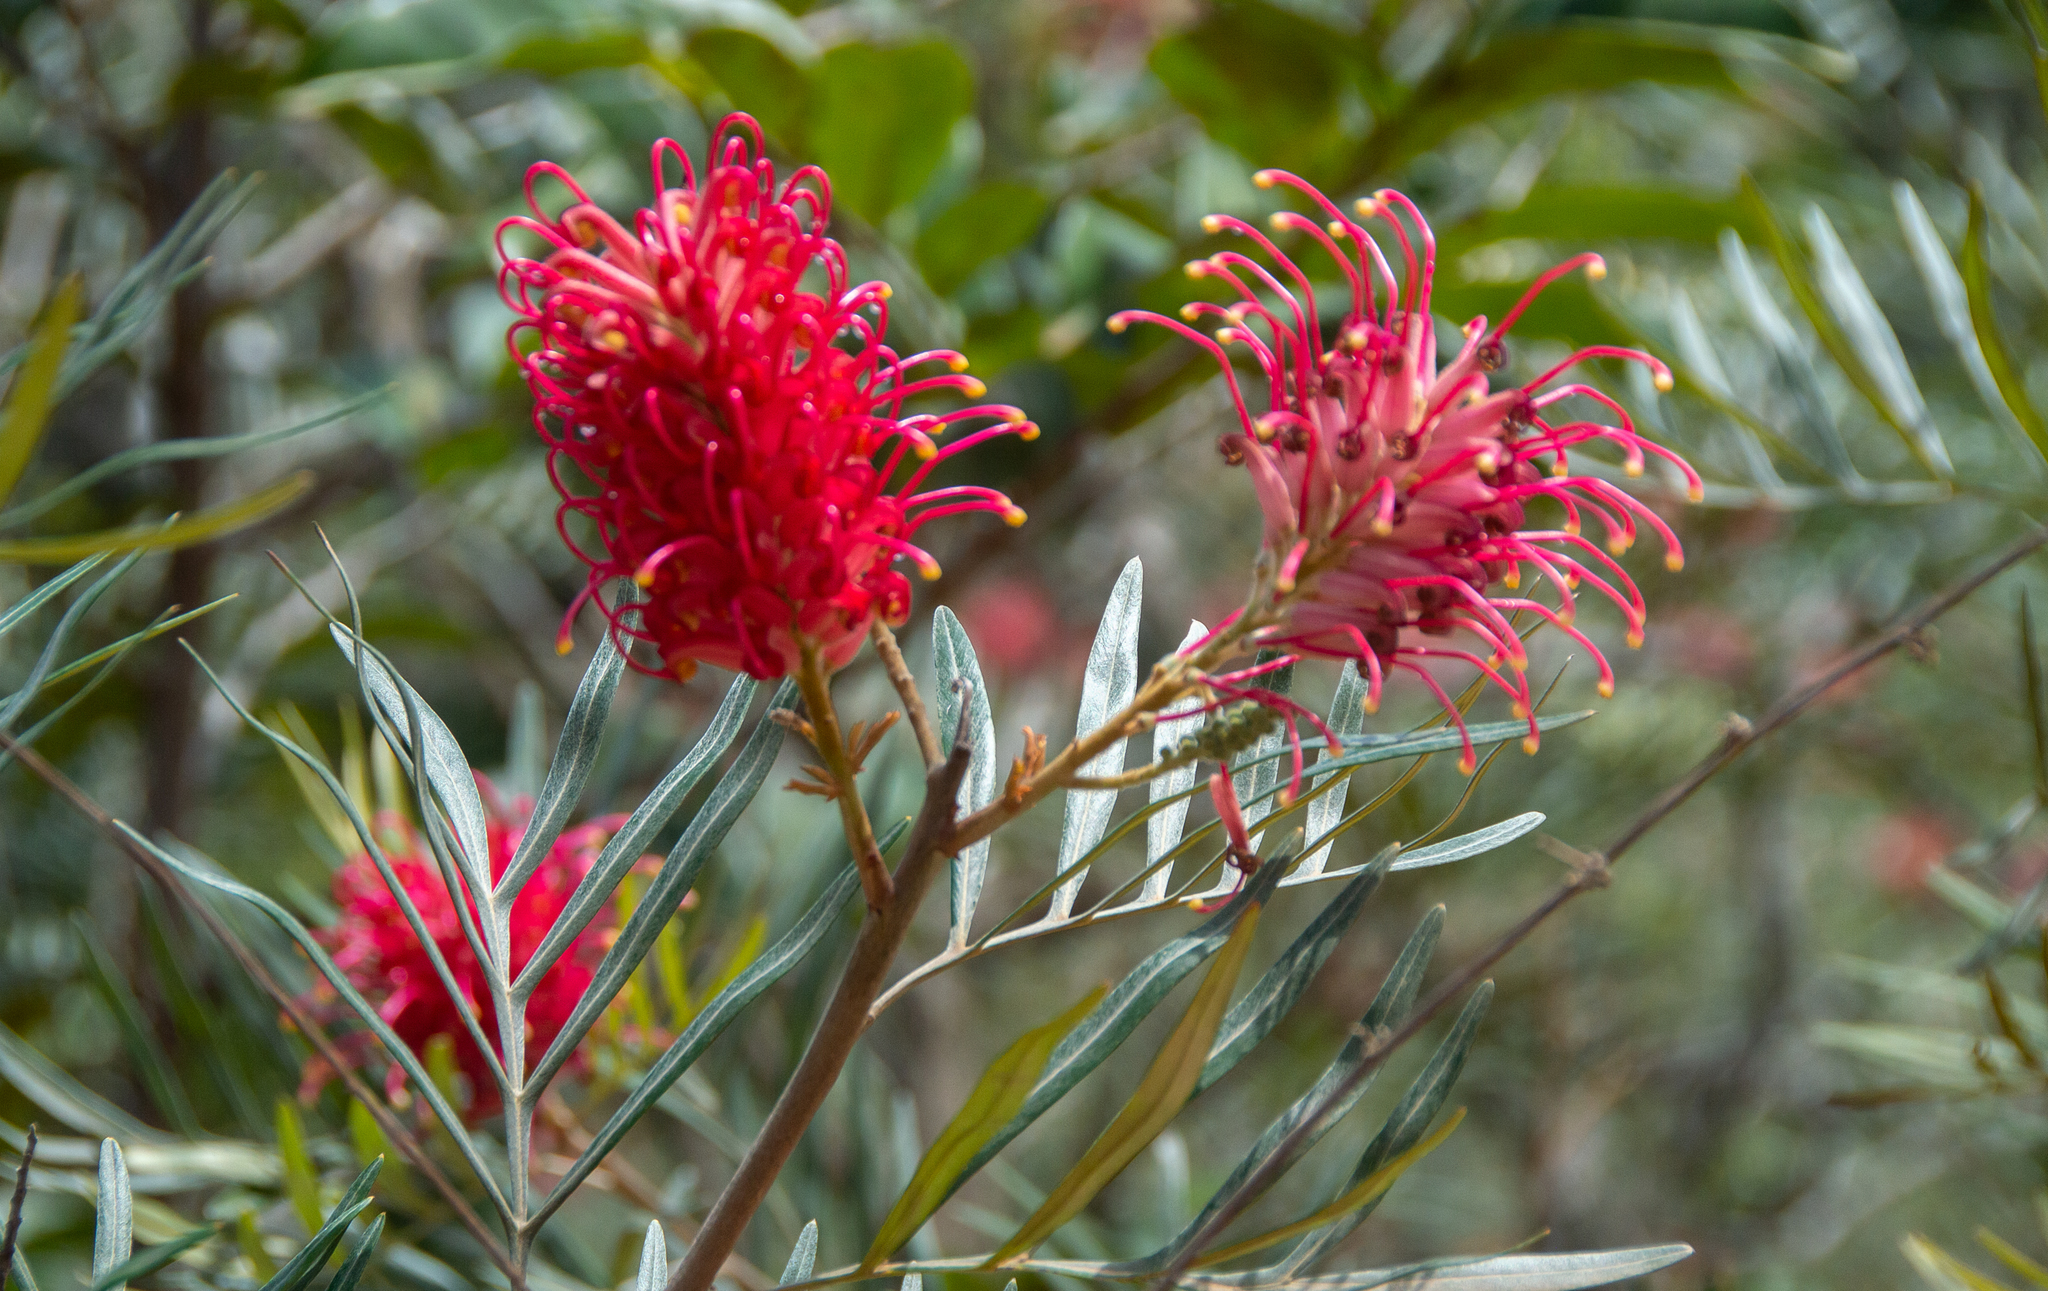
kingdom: Plantae
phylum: Tracheophyta
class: Magnoliopsida
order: Proteales
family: Proteaceae
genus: Grevillea
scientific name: Grevillea banksii
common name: Kahili flower
